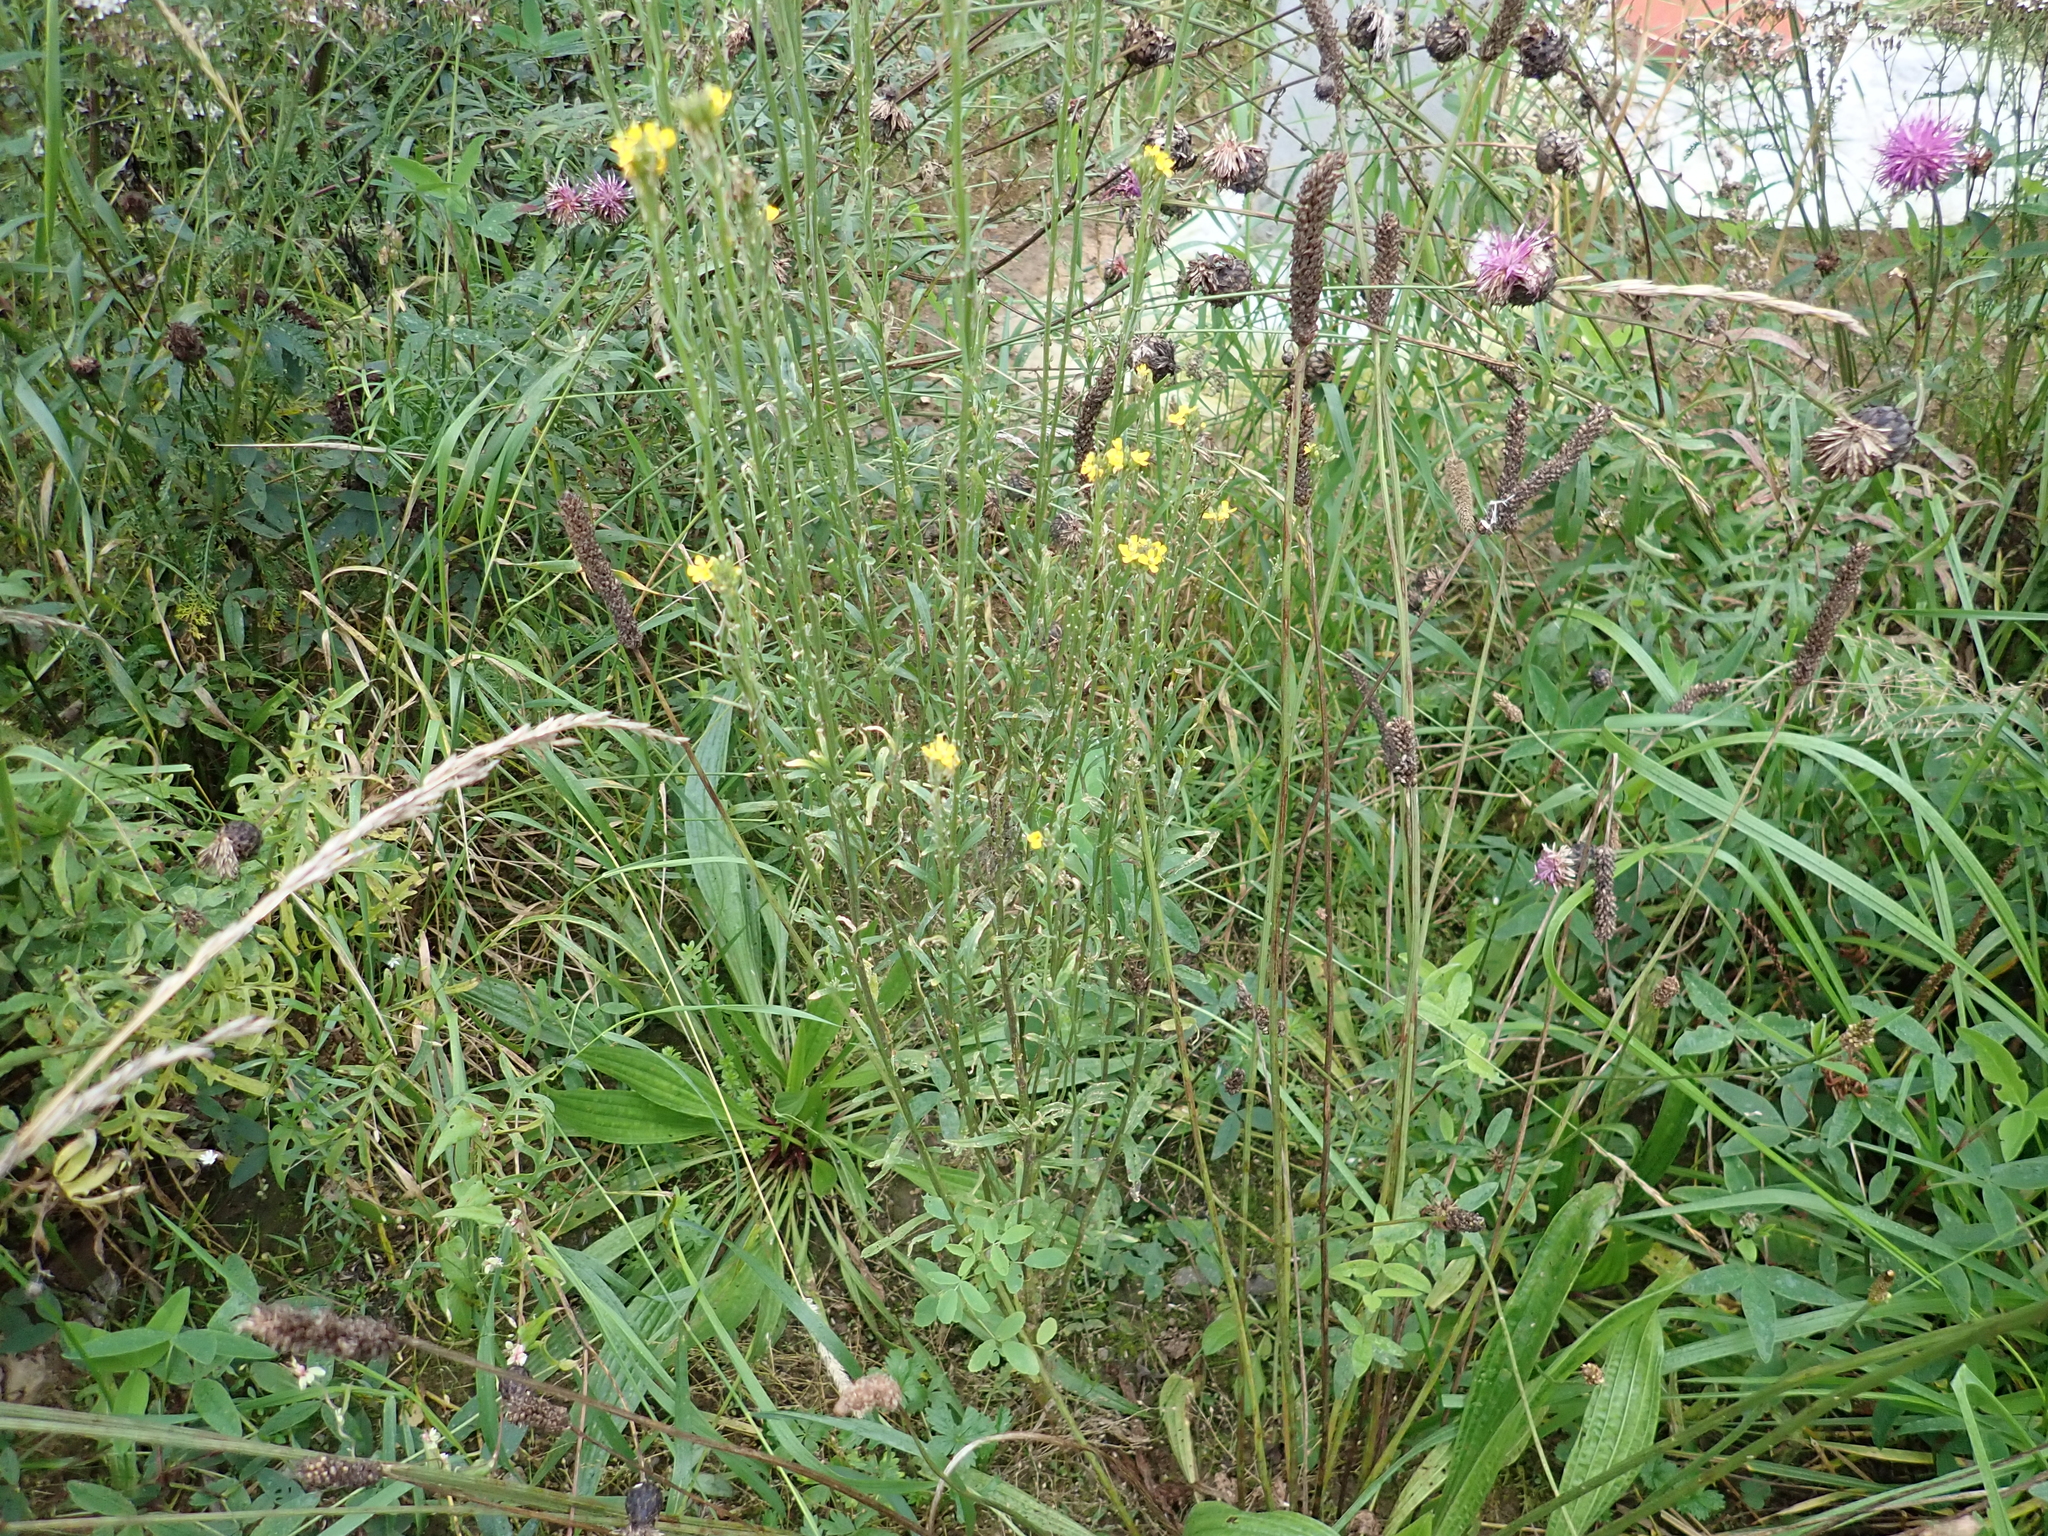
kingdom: Plantae
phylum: Tracheophyta
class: Magnoliopsida
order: Brassicales
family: Brassicaceae
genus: Erysimum
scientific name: Erysimum hieraciifolium
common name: European wallflower
